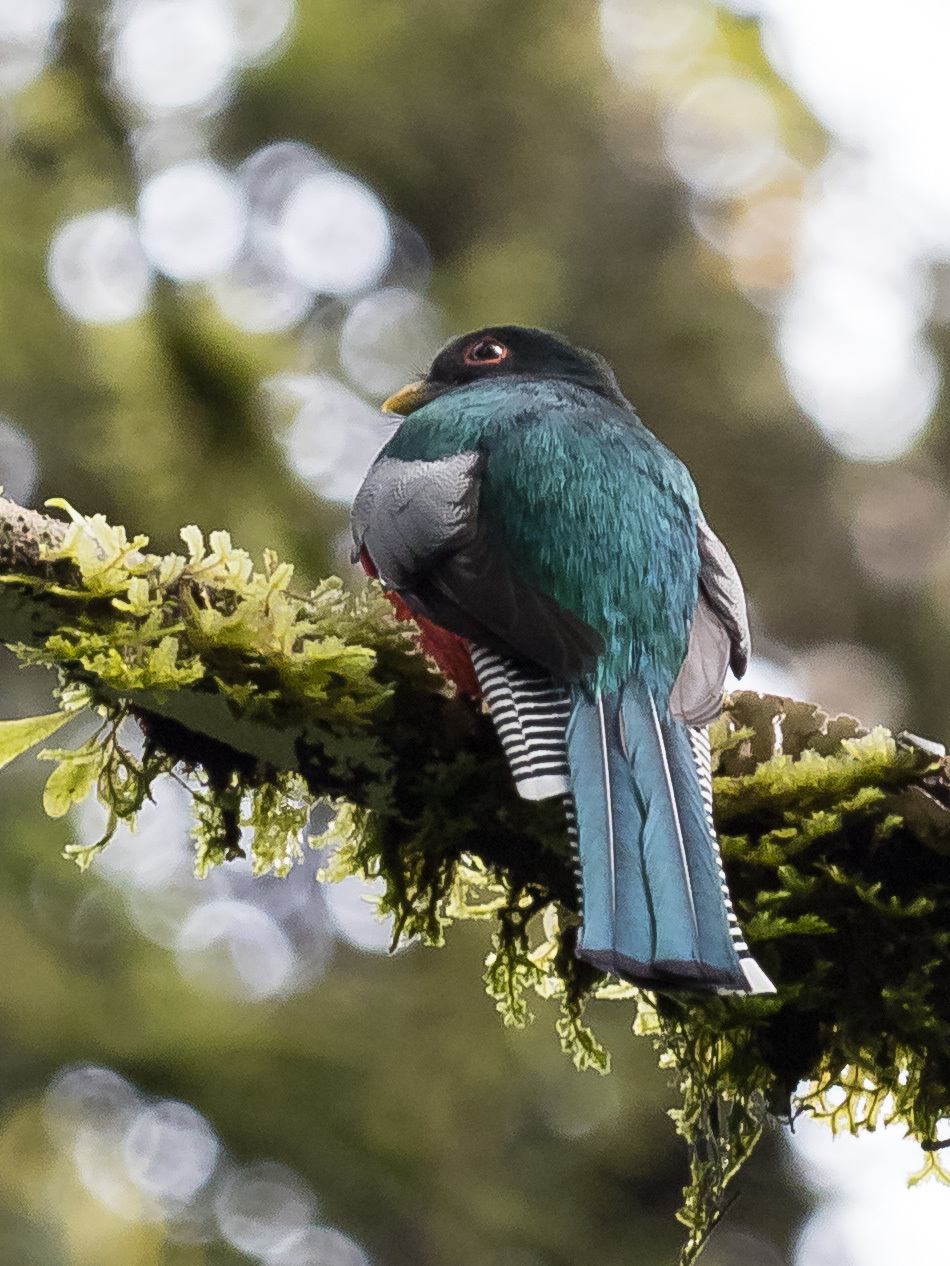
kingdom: Animalia
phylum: Chordata
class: Aves
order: Trogoniformes
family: Trogonidae
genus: Trogon
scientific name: Trogon collaris
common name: Collared trogon
